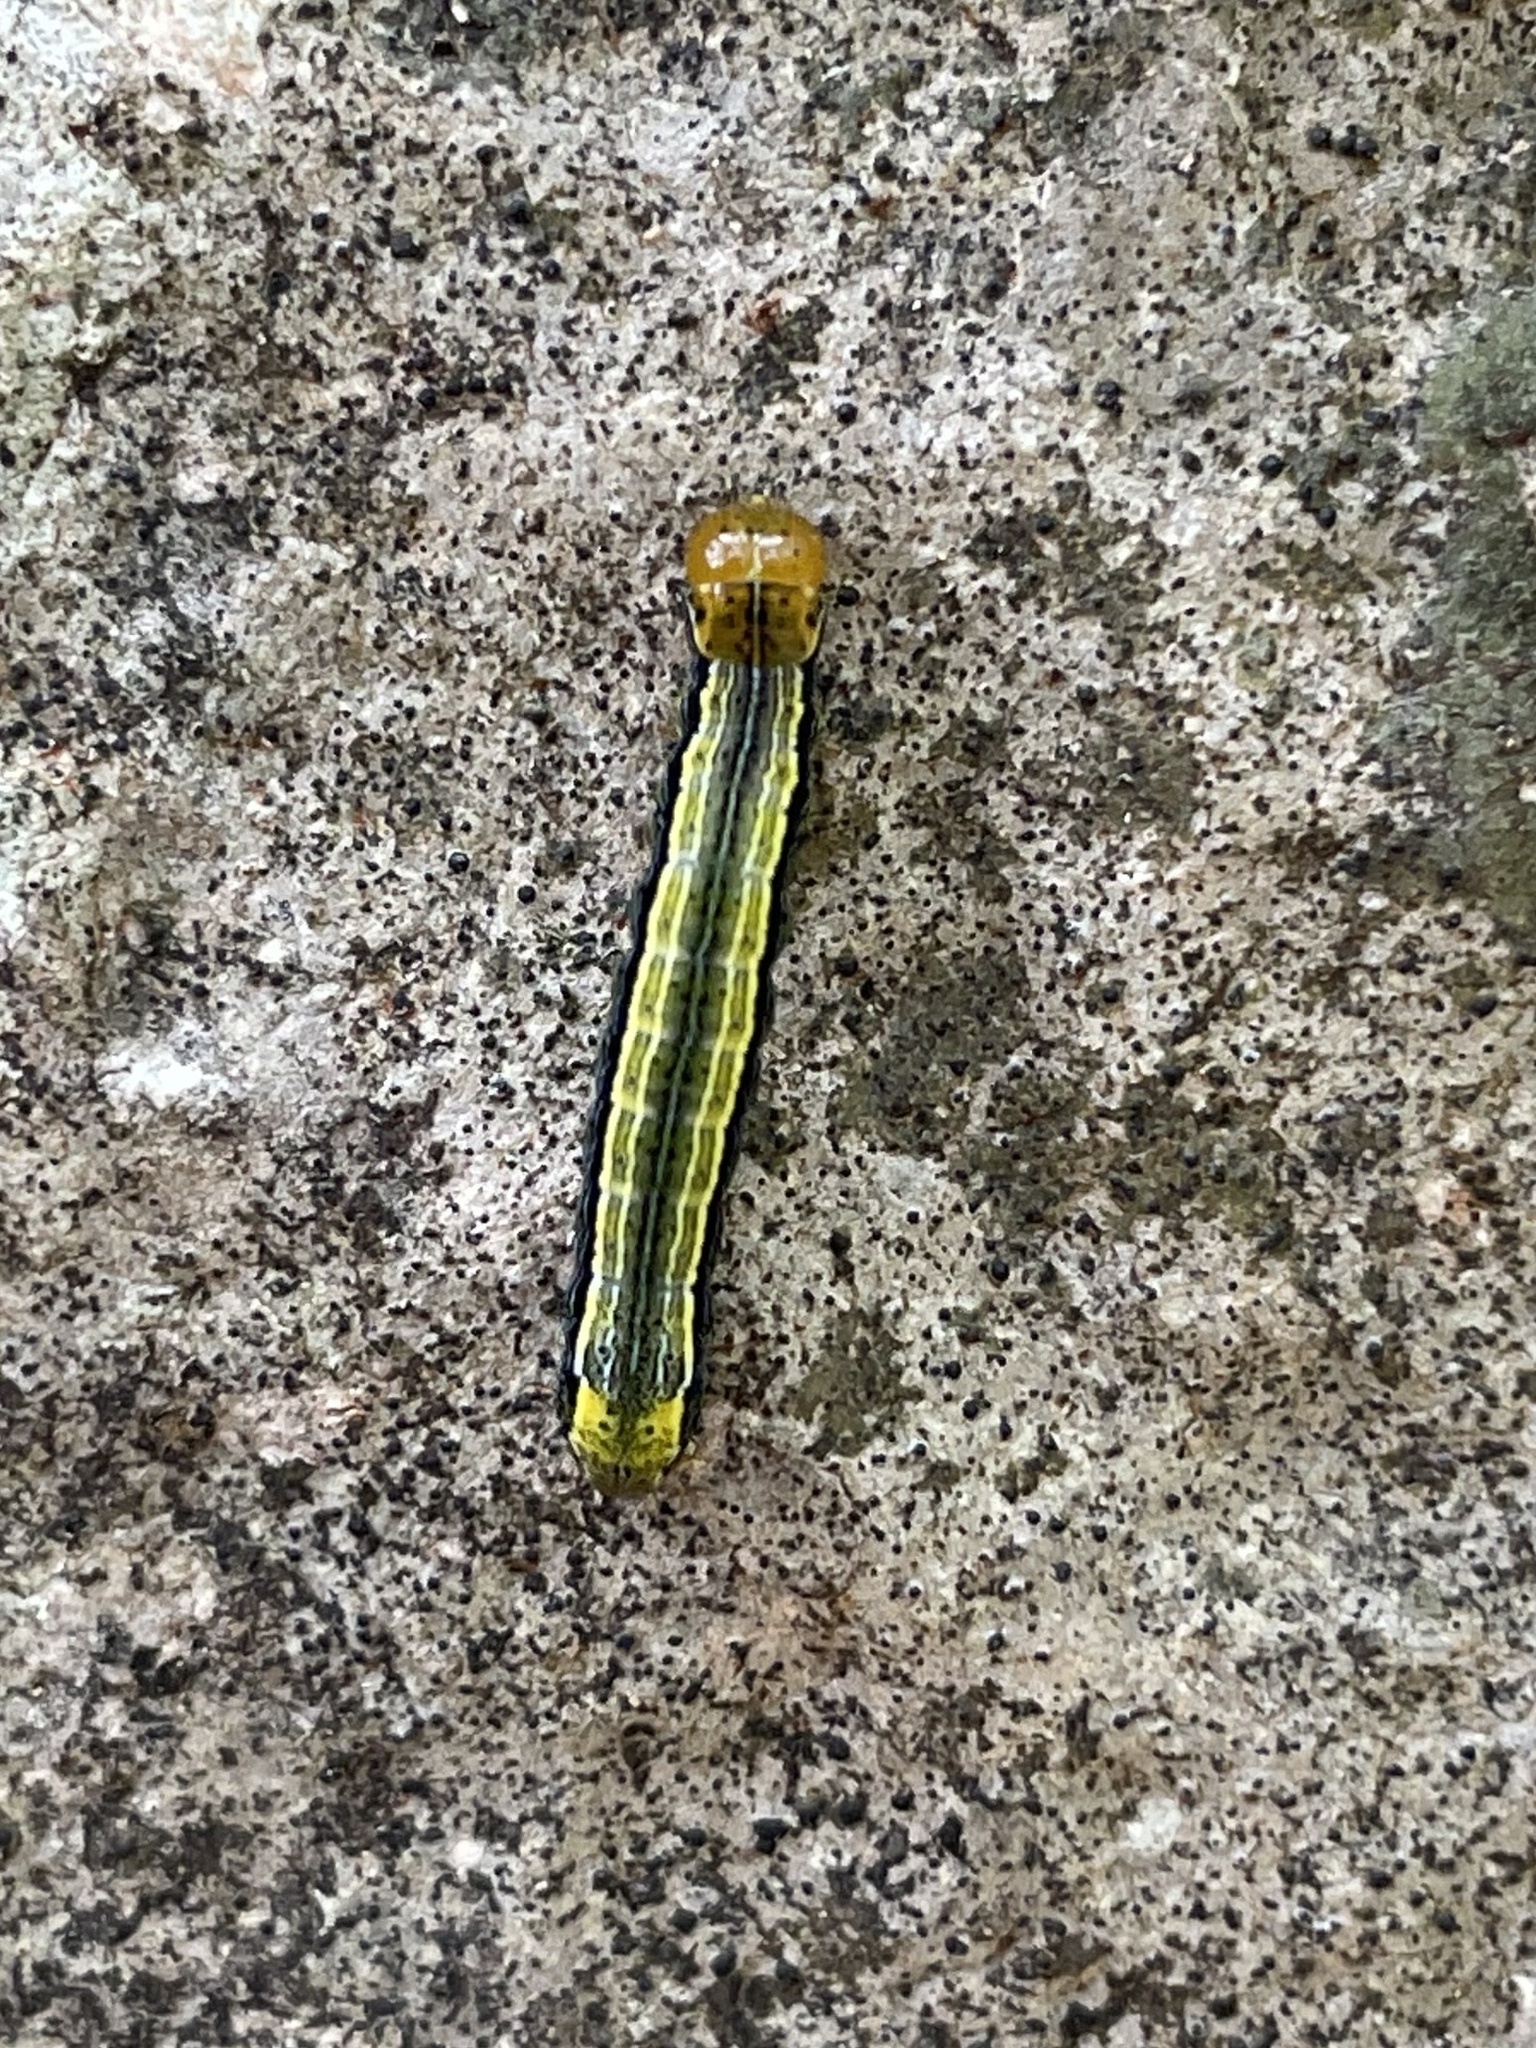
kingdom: Animalia
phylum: Arthropoda
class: Insecta
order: Lepidoptera
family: Noctuidae
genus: Magusa
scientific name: Magusa divaricata
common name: Orb narrow-winged moth
